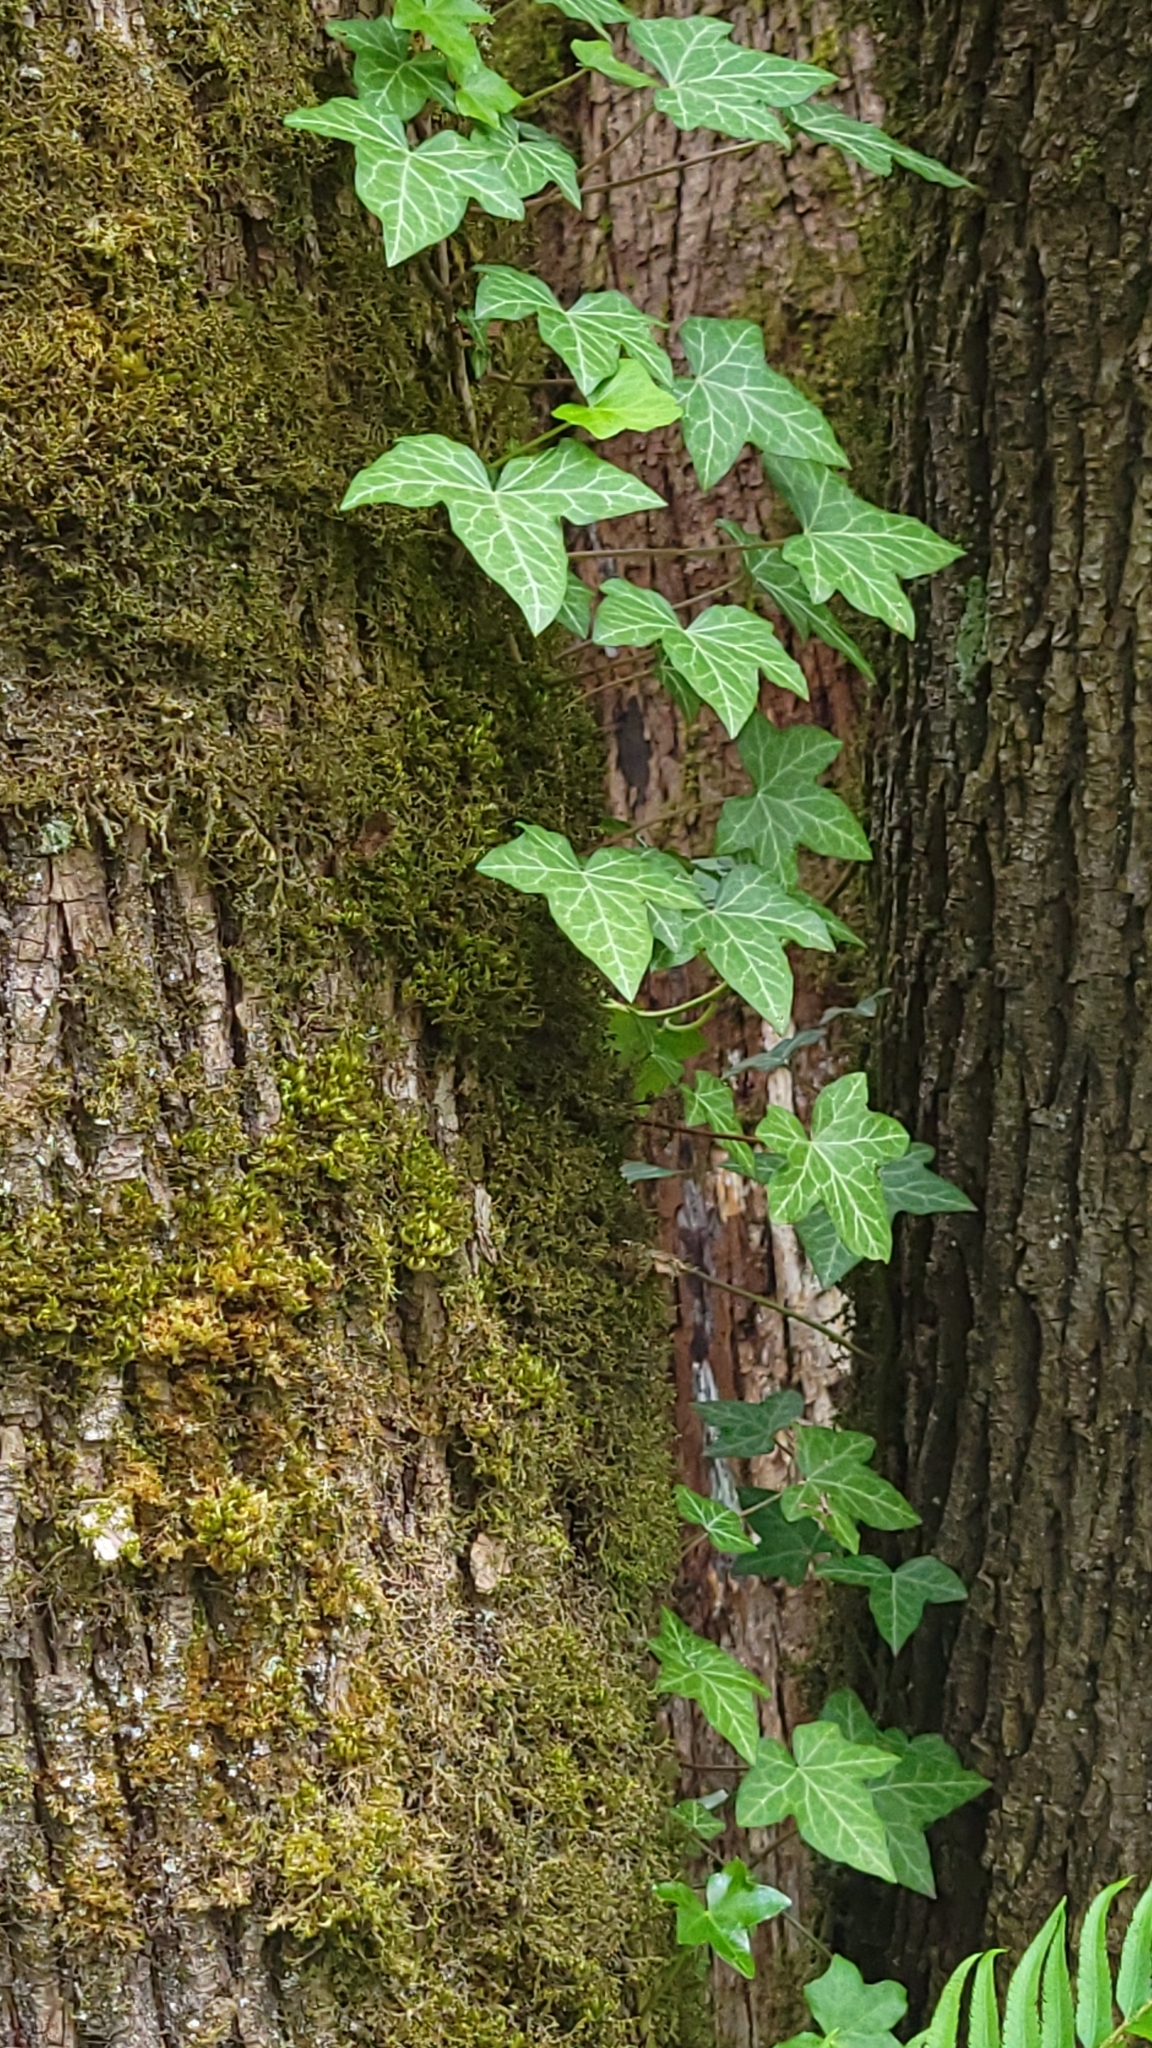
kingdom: Plantae
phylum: Tracheophyta
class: Magnoliopsida
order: Apiales
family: Araliaceae
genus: Hedera
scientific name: Hedera helix
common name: Ivy
